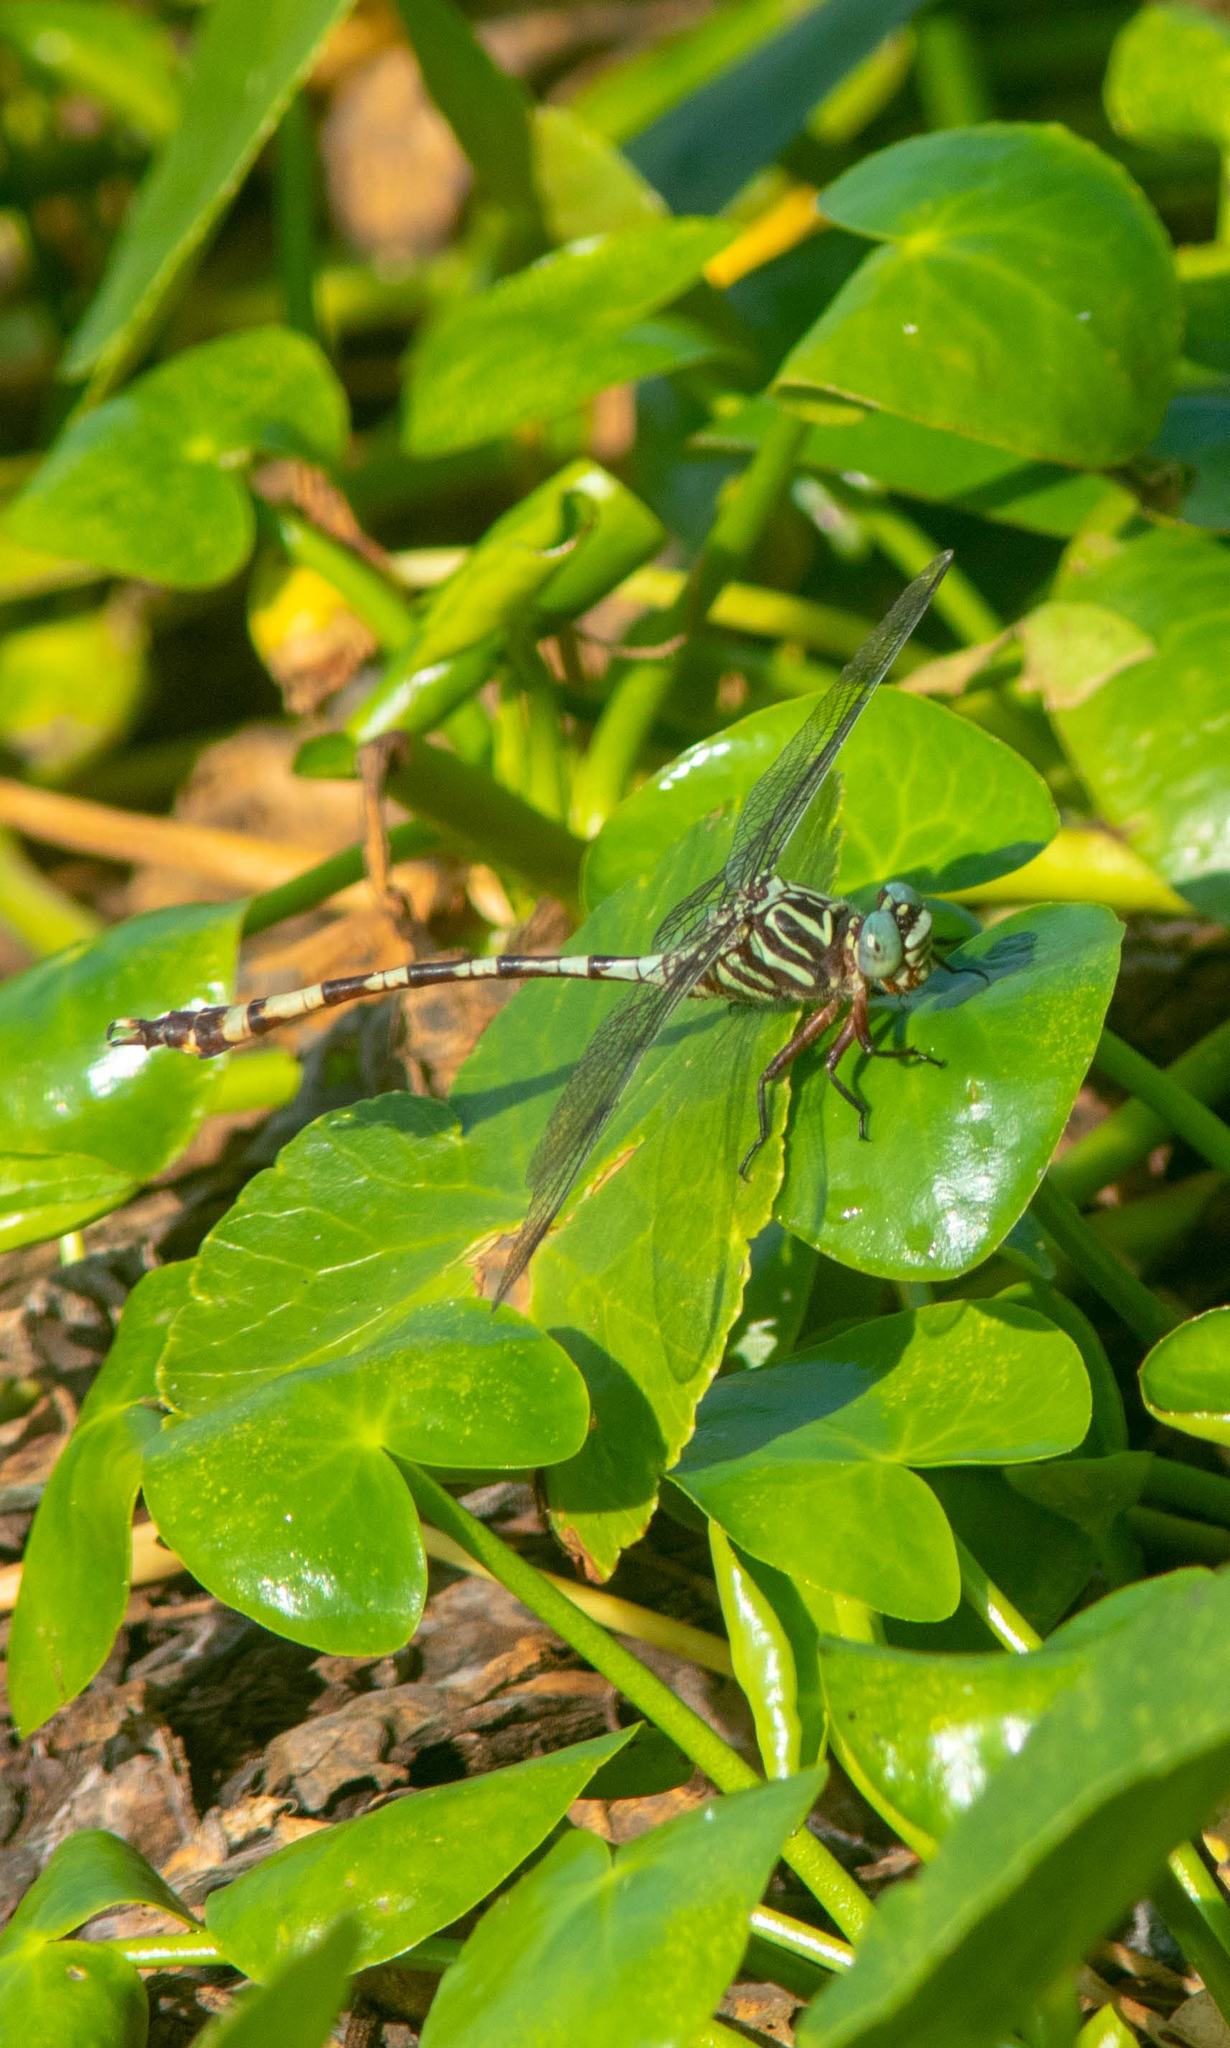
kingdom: Animalia
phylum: Arthropoda
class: Insecta
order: Odonata
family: Gomphidae
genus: Aphylla
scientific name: Aphylla angustifolia
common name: Broad-striped forceptail
